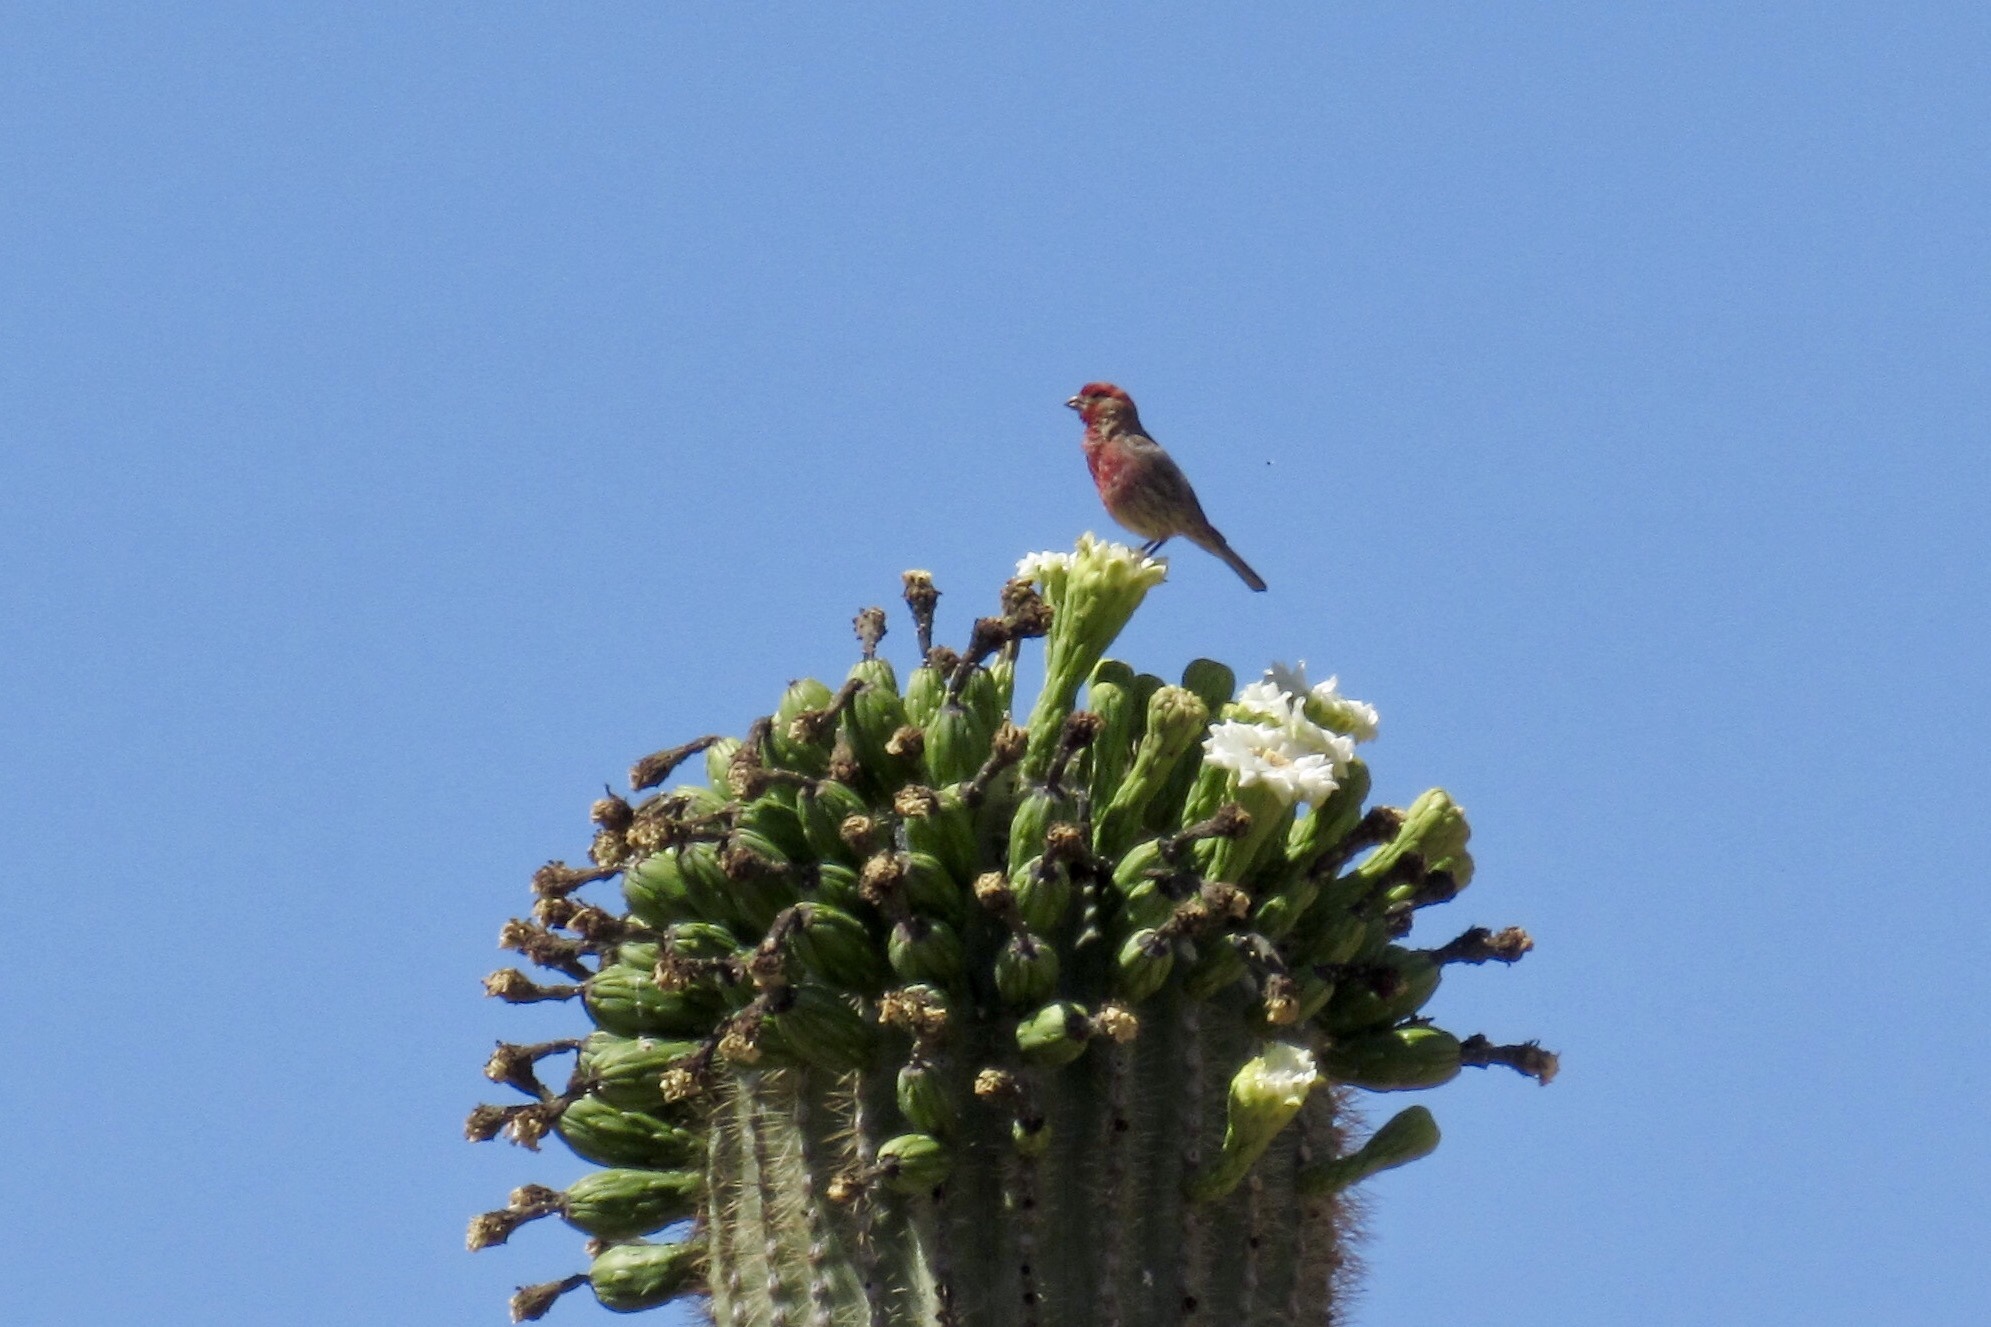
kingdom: Animalia
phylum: Chordata
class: Aves
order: Passeriformes
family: Fringillidae
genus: Haemorhous
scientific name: Haemorhous mexicanus
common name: House finch
